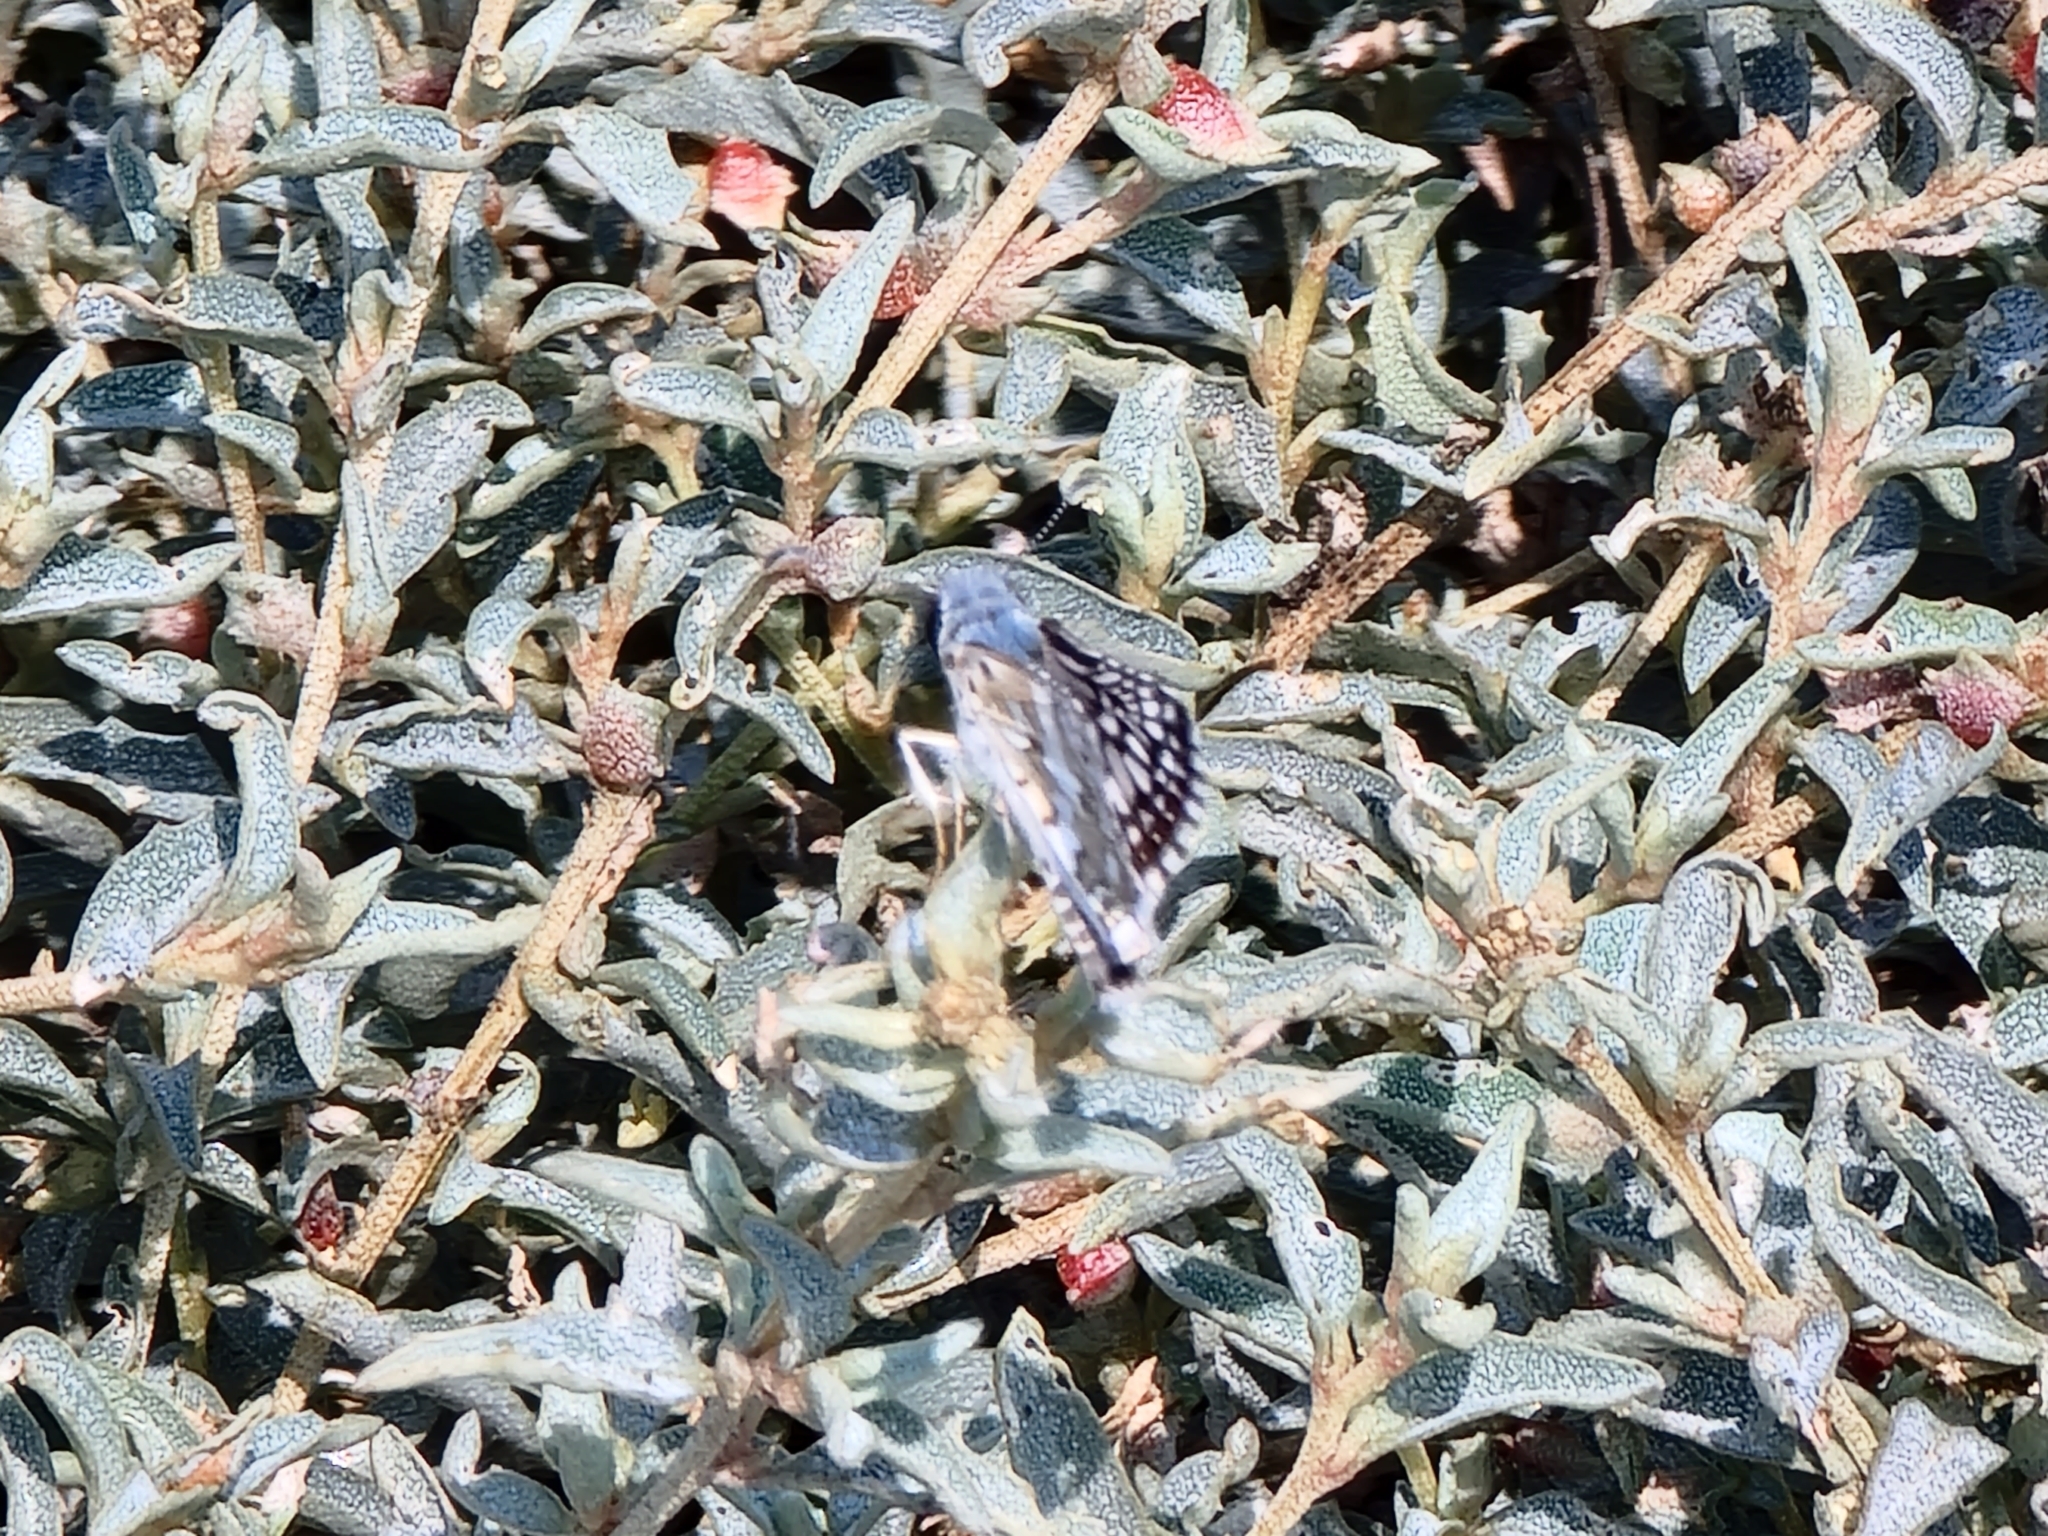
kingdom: Animalia
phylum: Arthropoda
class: Insecta
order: Lepidoptera
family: Hesperiidae
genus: Burnsius
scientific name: Burnsius communis
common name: Common checkered-skipper
